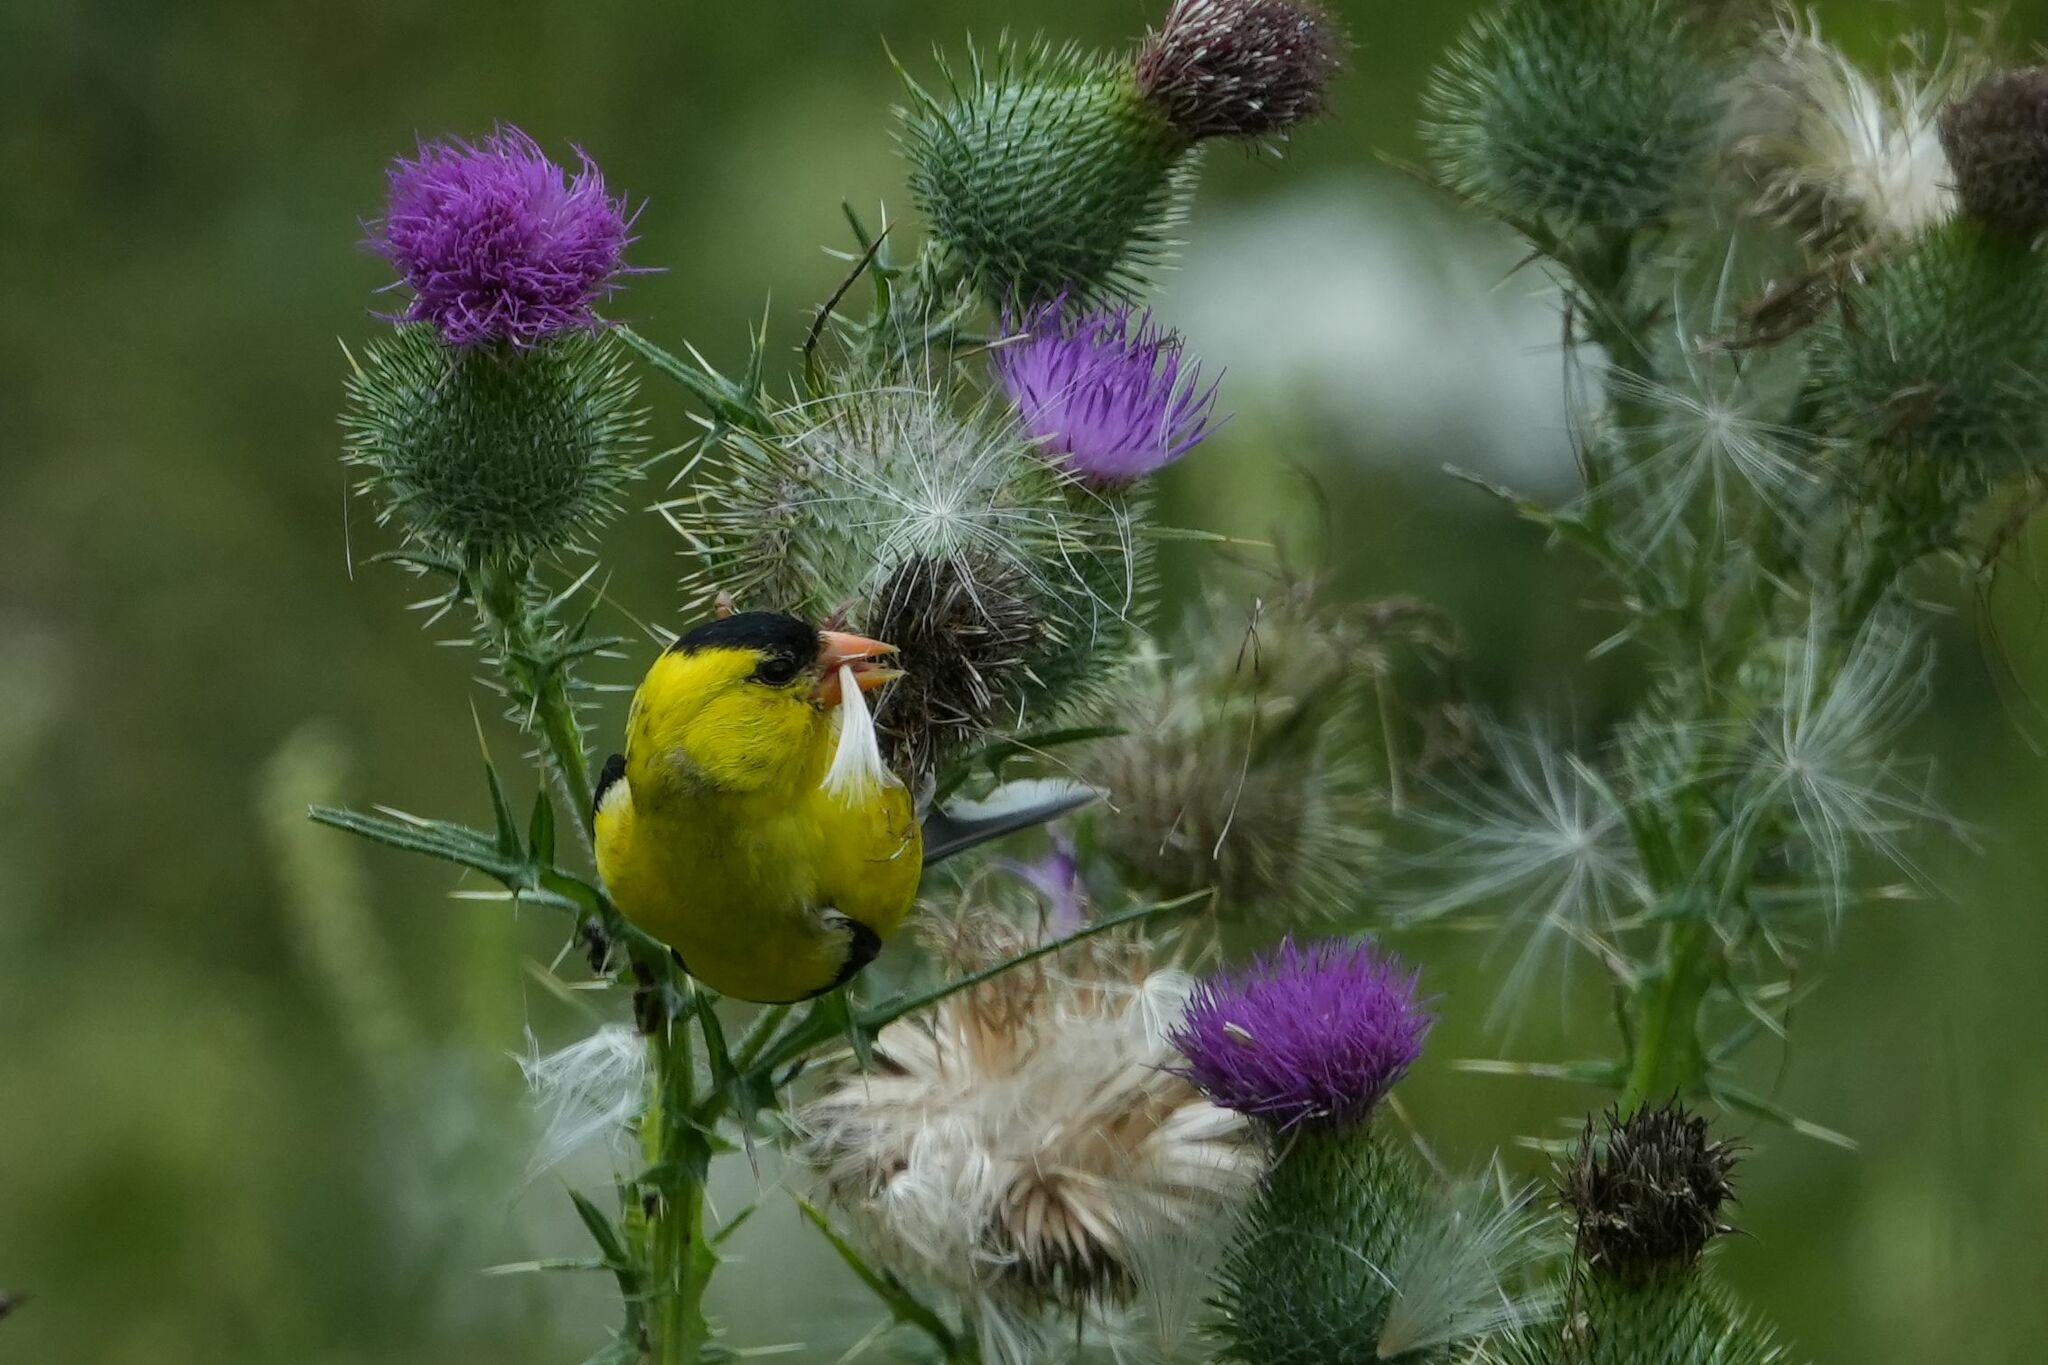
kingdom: Animalia
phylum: Chordata
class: Aves
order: Passeriformes
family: Fringillidae
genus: Spinus
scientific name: Spinus tristis
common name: American goldfinch
